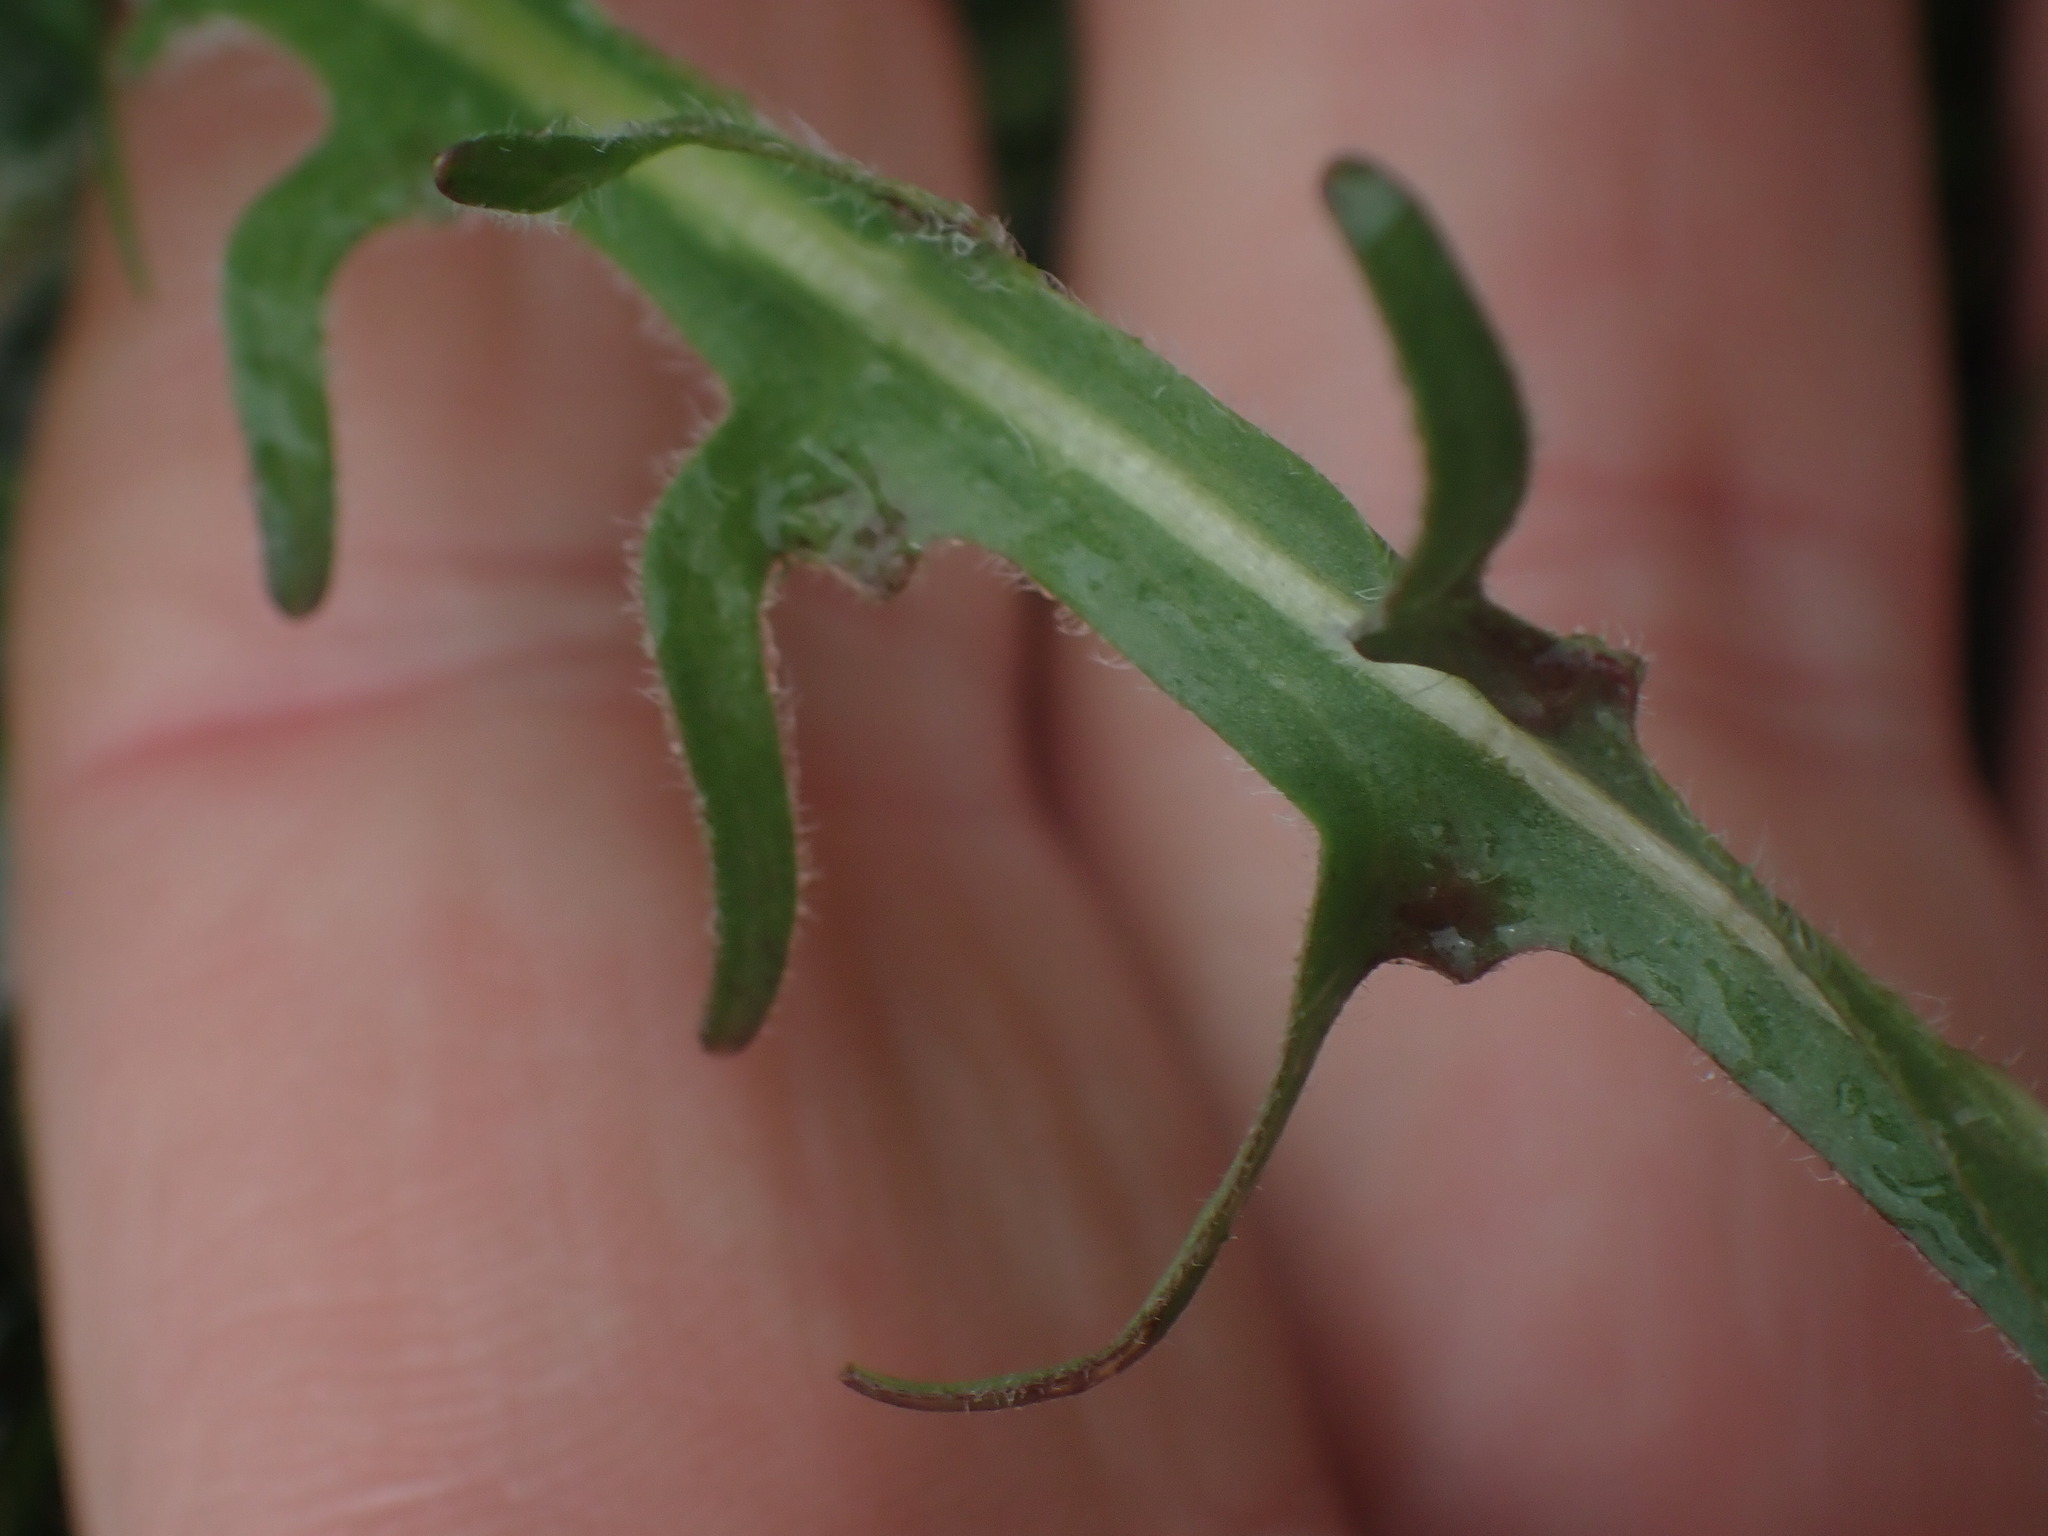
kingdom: Plantae
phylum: Tracheophyta
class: Magnoliopsida
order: Asterales
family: Asteraceae
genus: Agoseris
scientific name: Agoseris grandiflora
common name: Grassland agoseris
